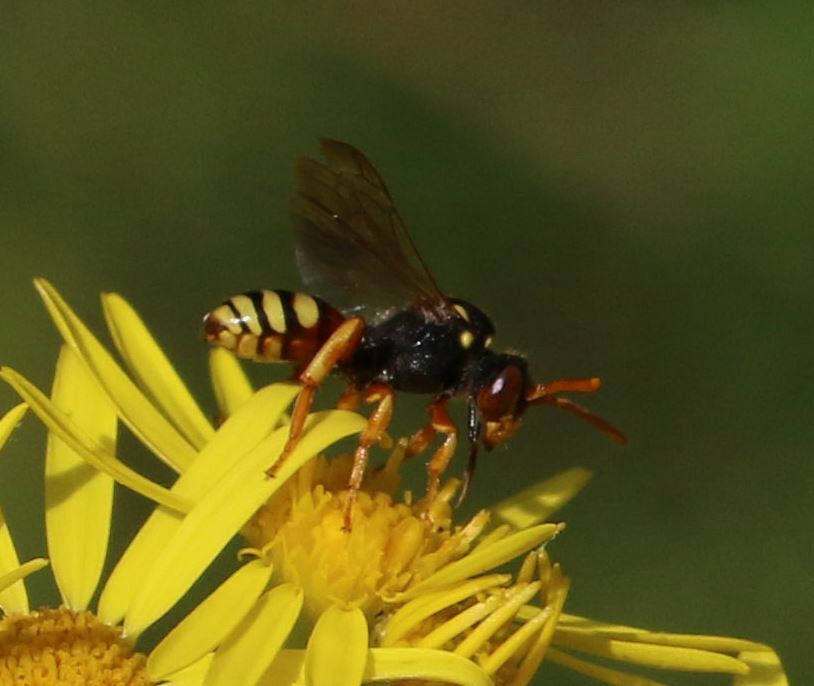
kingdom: Animalia
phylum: Arthropoda
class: Insecta
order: Hymenoptera
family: Apidae
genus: Nomada
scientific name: Nomada fucata
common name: Painted nomad bee
